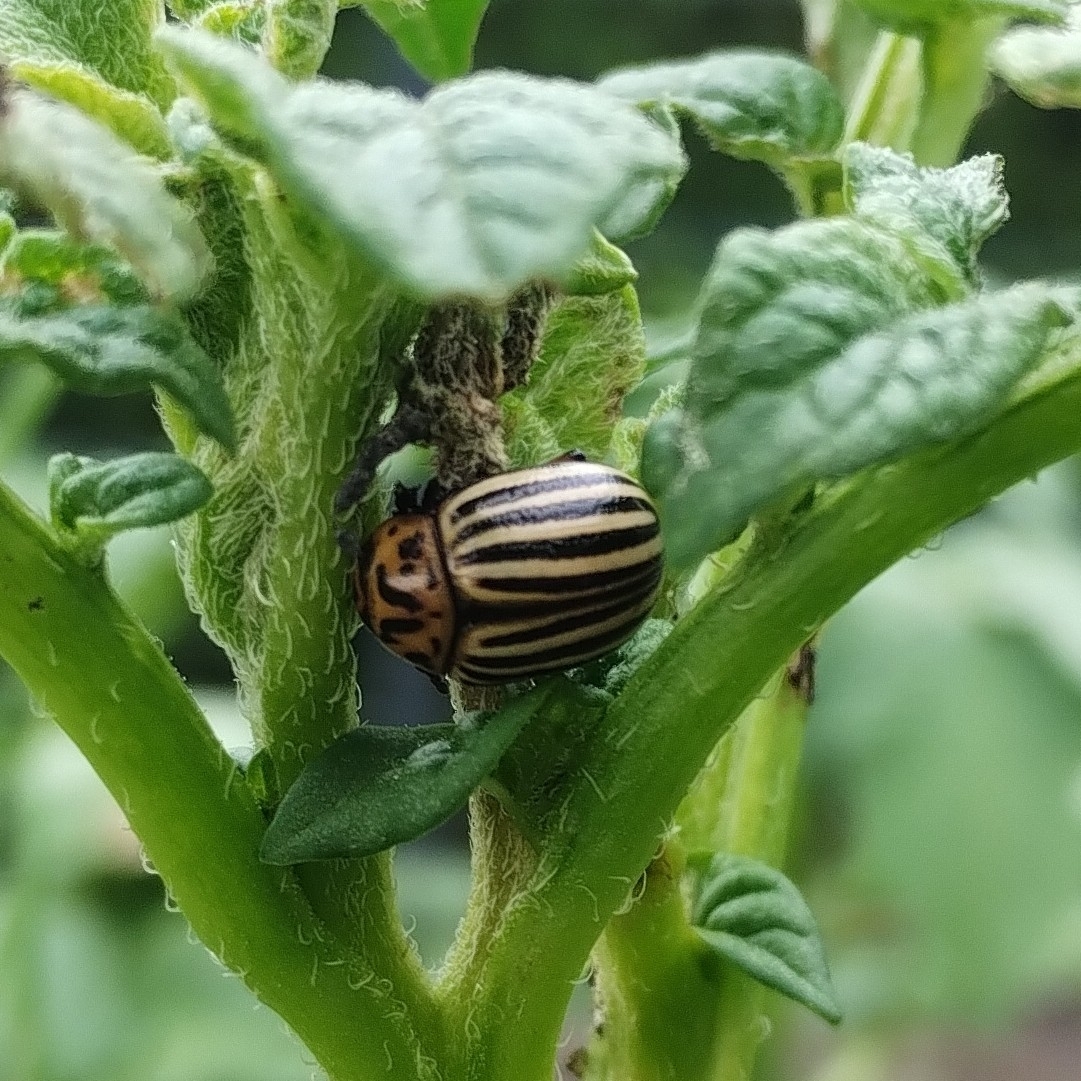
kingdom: Animalia
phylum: Arthropoda
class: Insecta
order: Coleoptera
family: Chrysomelidae
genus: Leptinotarsa
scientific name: Leptinotarsa decemlineata
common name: Colorado potato beetle
